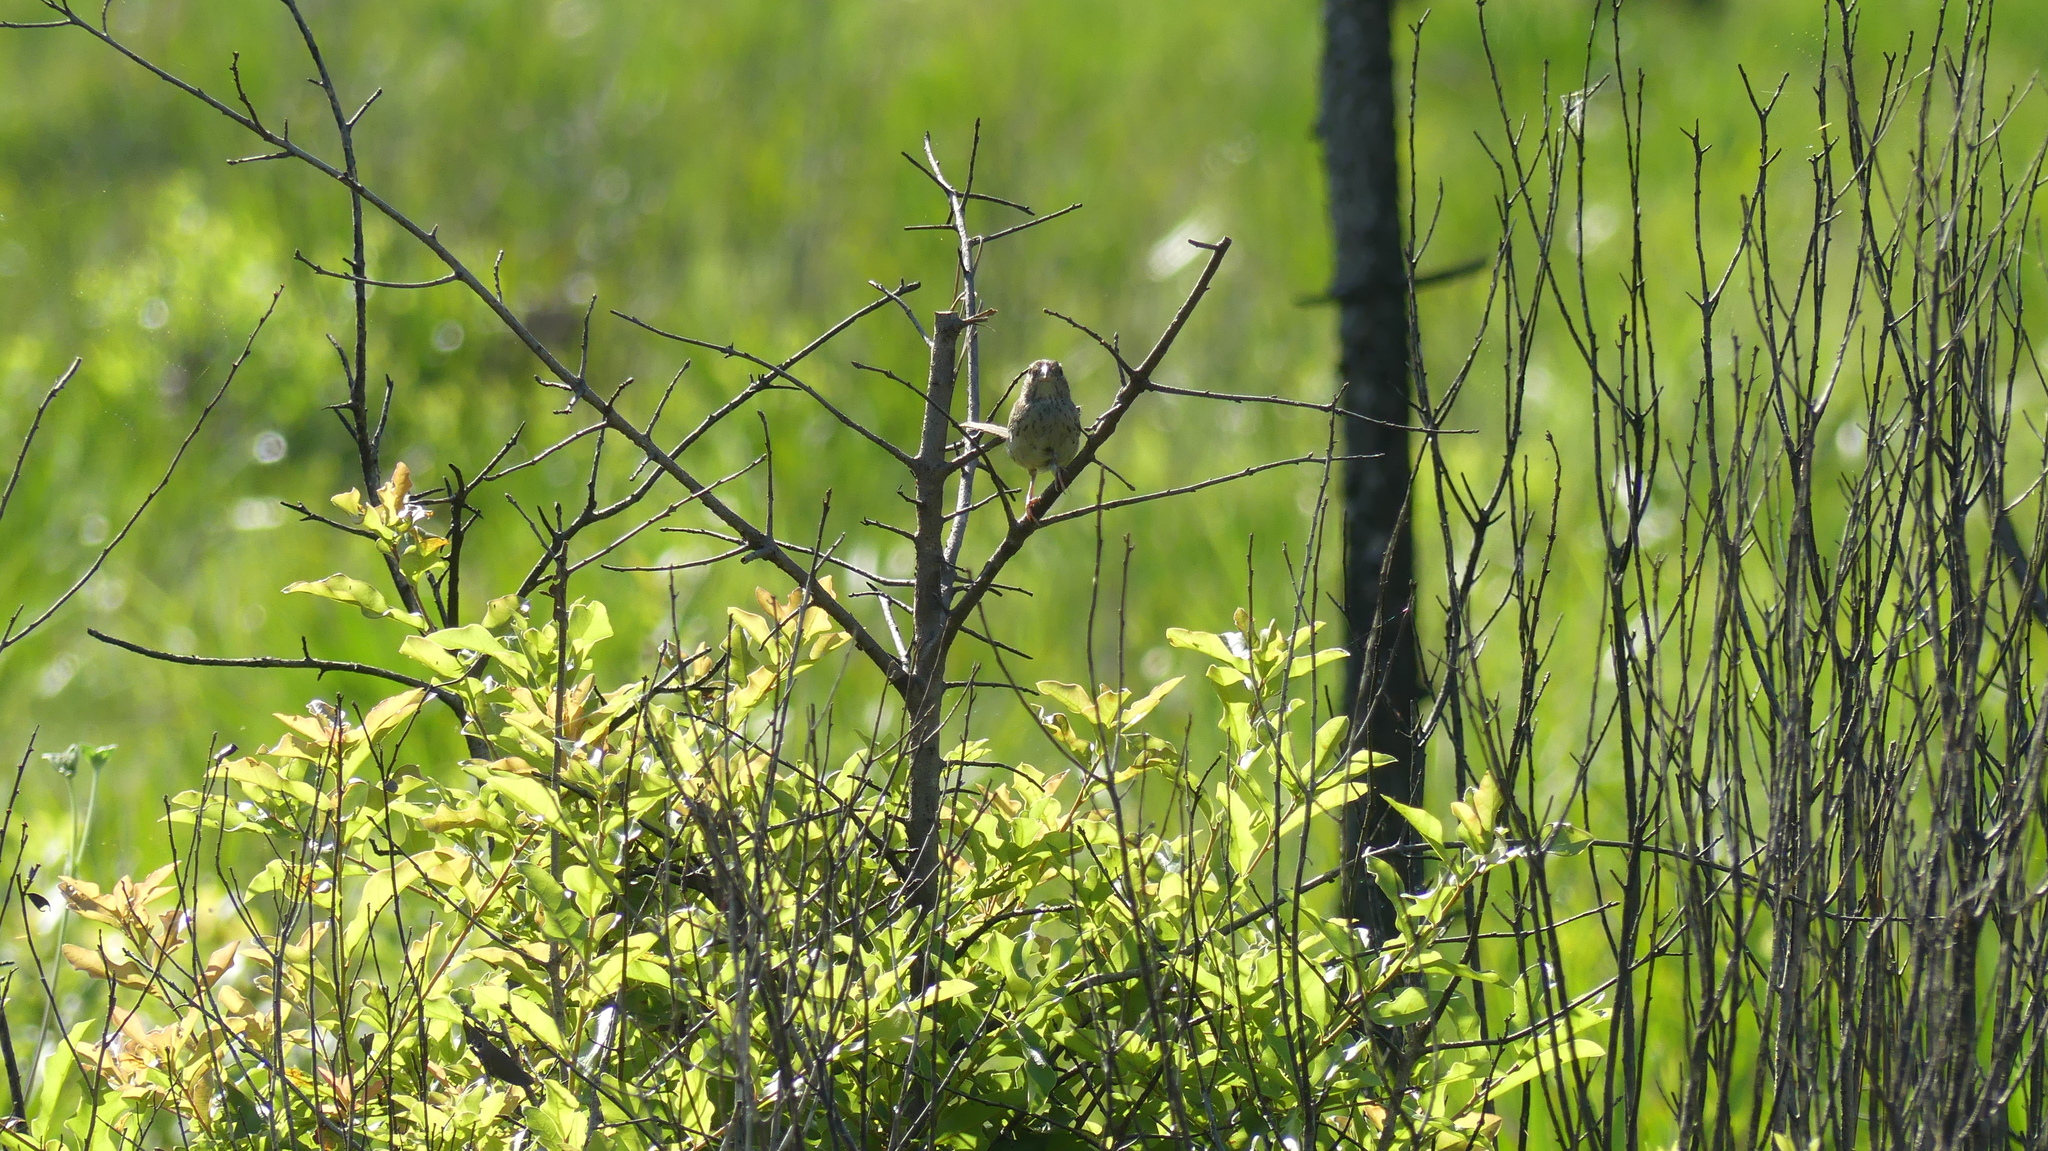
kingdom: Animalia
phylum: Chordata
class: Aves
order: Passeriformes
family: Passerellidae
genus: Peucaea
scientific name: Peucaea aestivalis
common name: Bachman's sparrow
